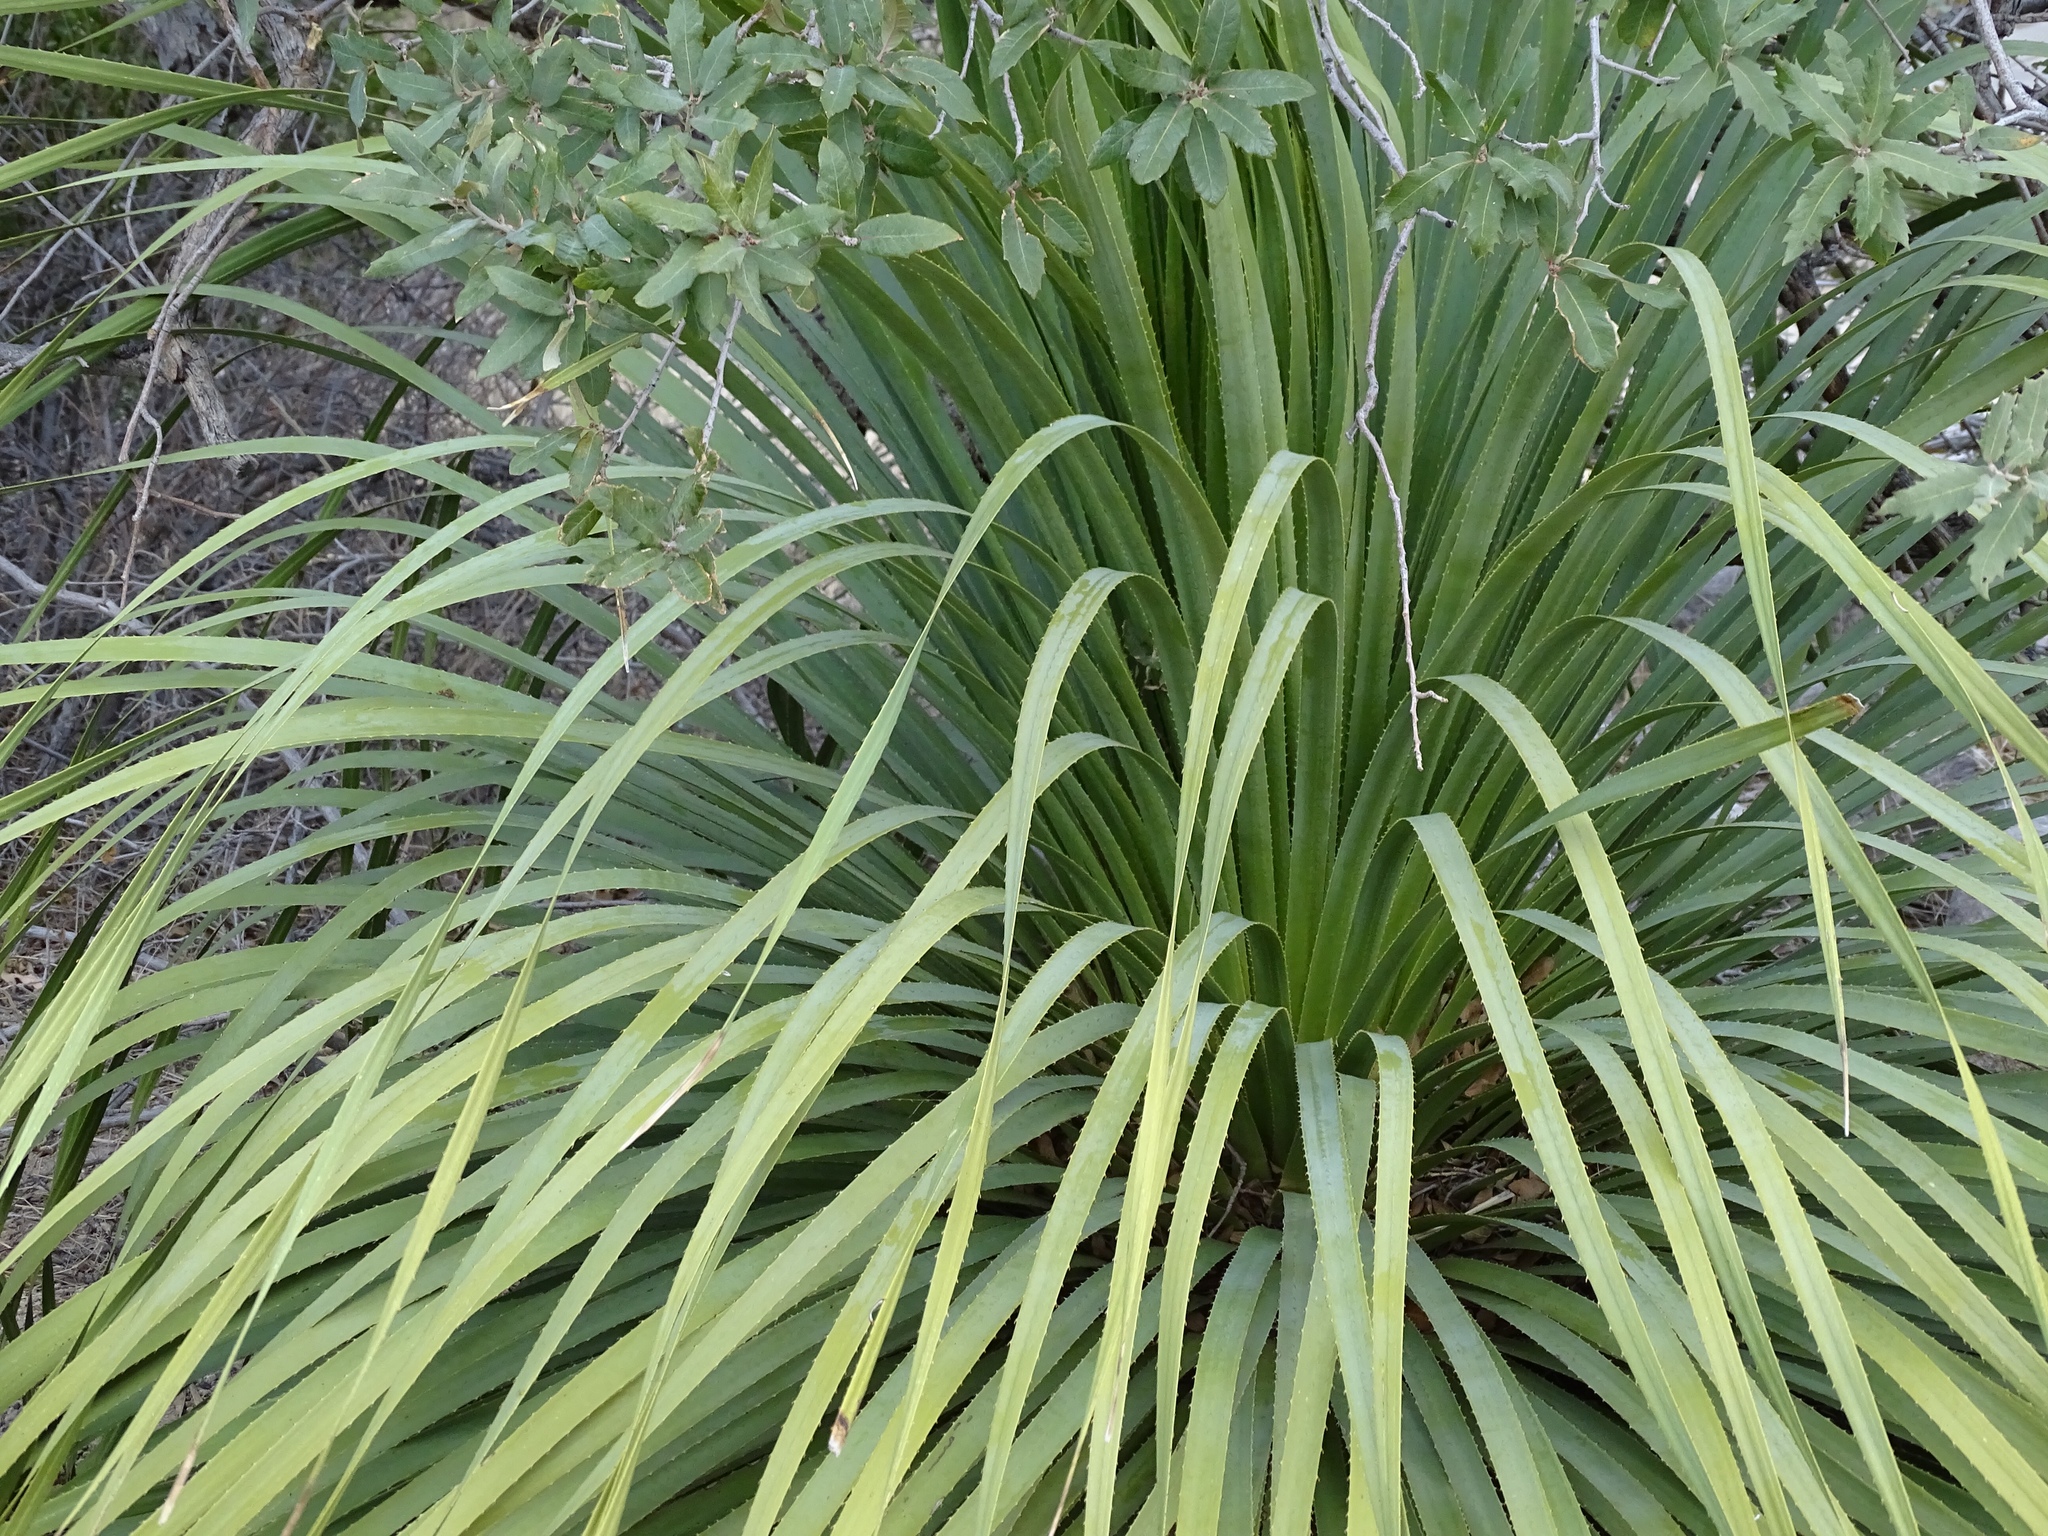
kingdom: Plantae
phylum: Tracheophyta
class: Liliopsida
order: Asparagales
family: Asparagaceae
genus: Dasylirion
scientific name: Dasylirion wheeleri
